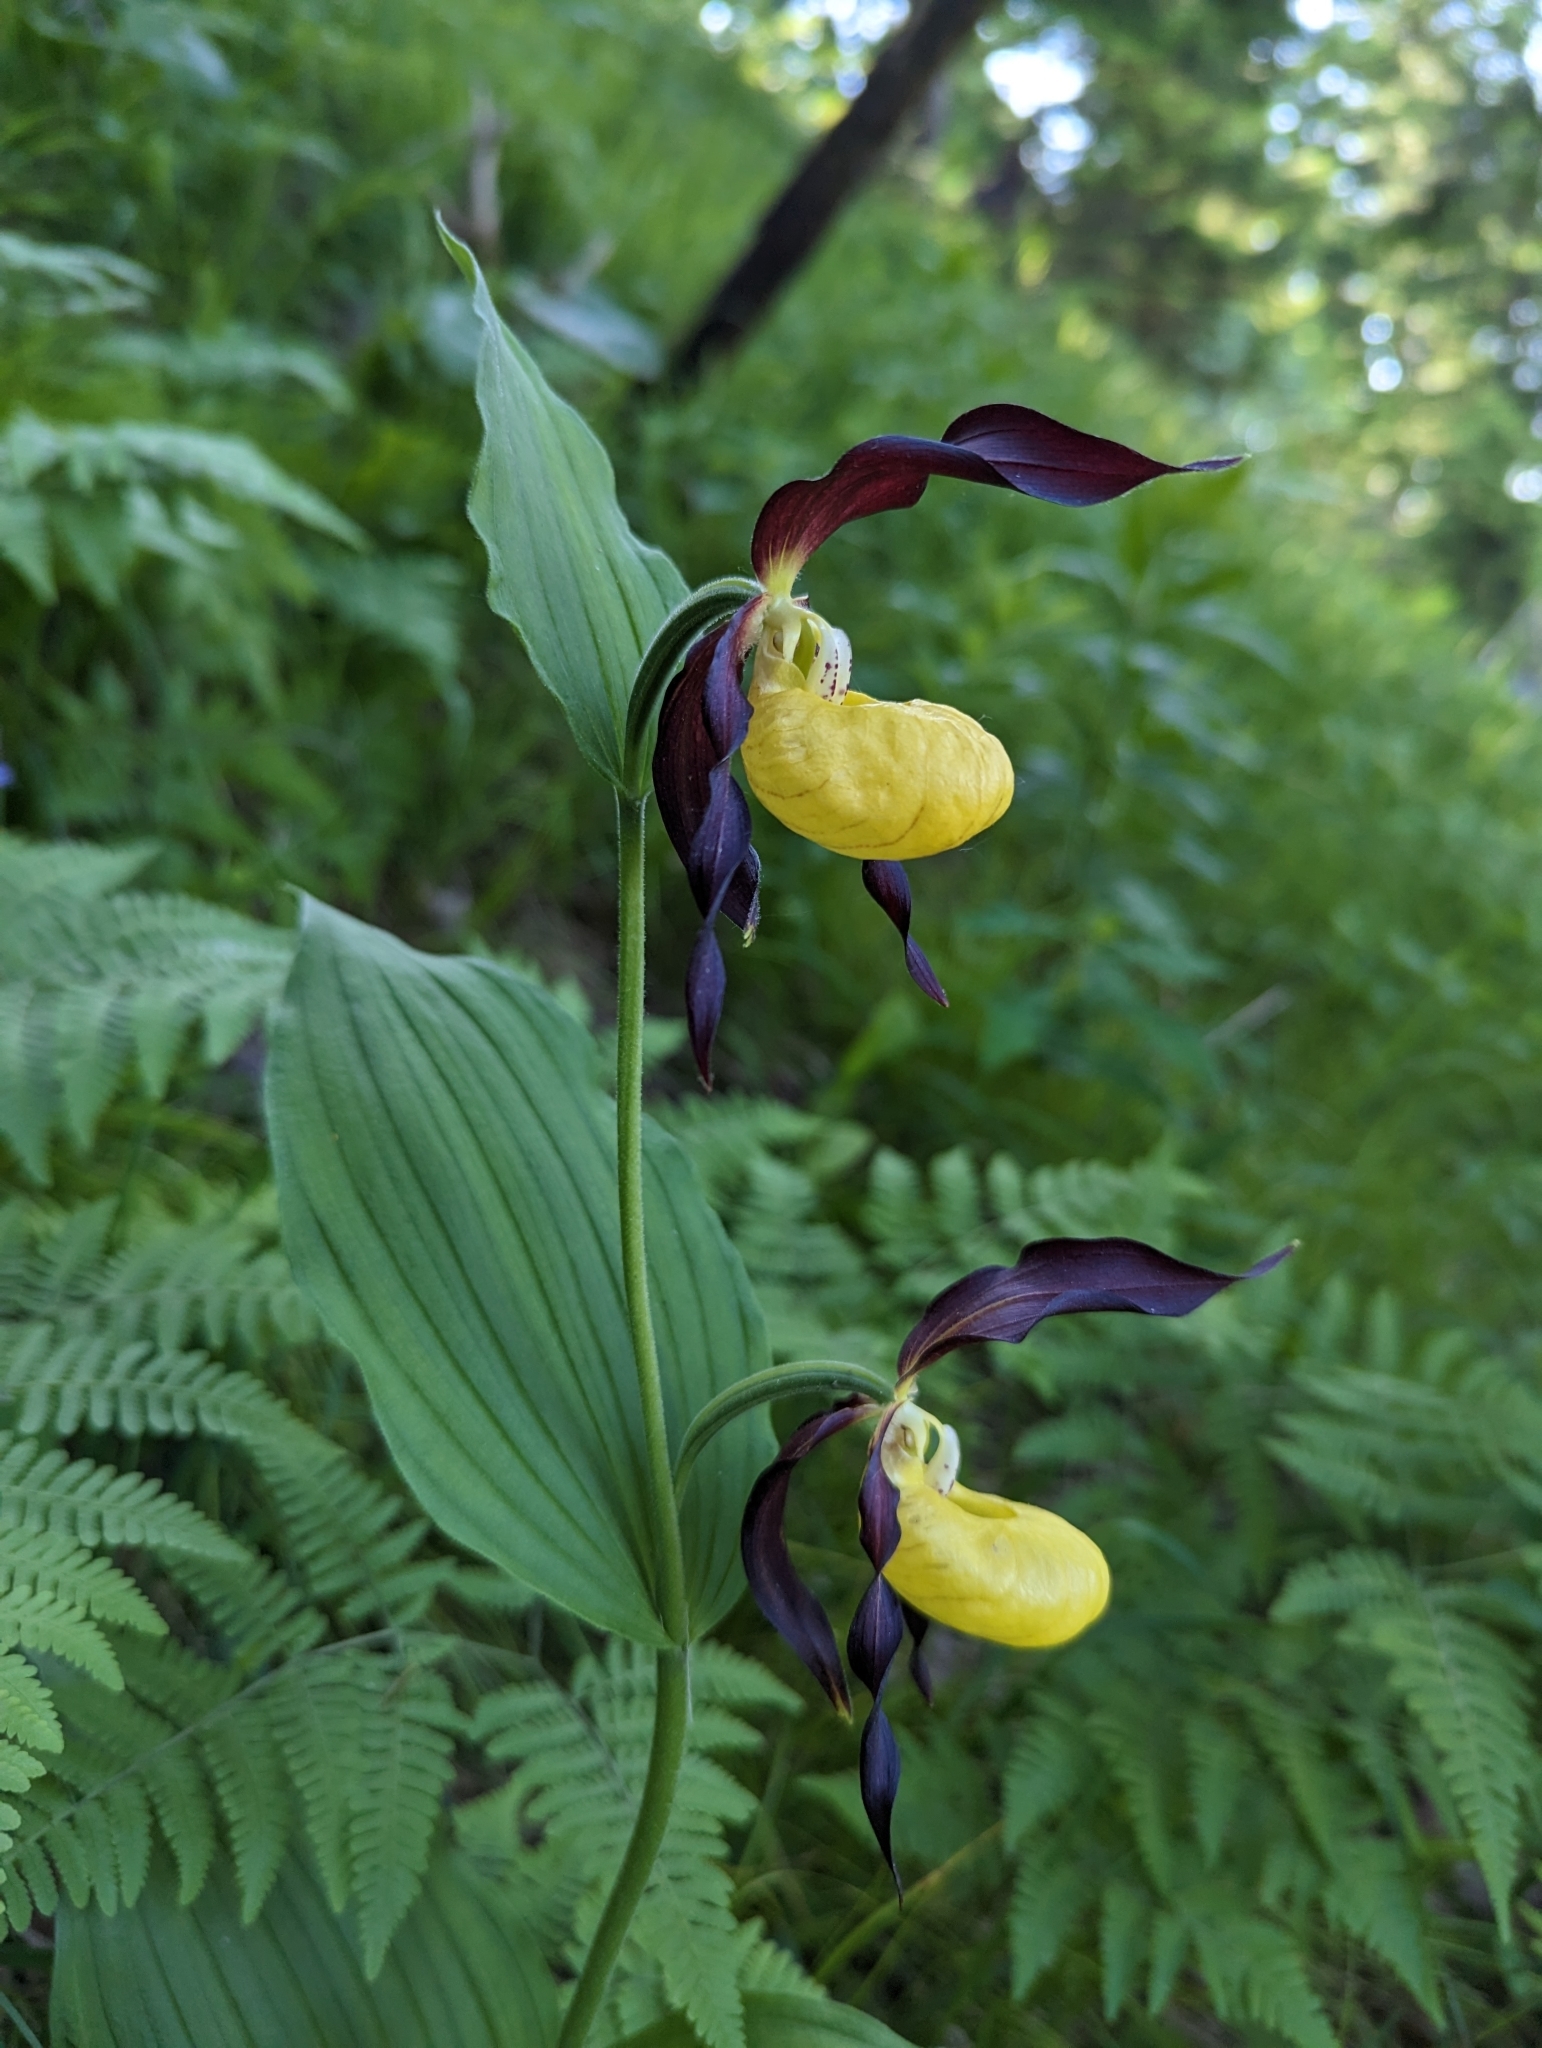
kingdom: Plantae
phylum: Tracheophyta
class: Liliopsida
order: Asparagales
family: Orchidaceae
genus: Cypripedium
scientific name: Cypripedium calceolus
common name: Lady's-slipper
